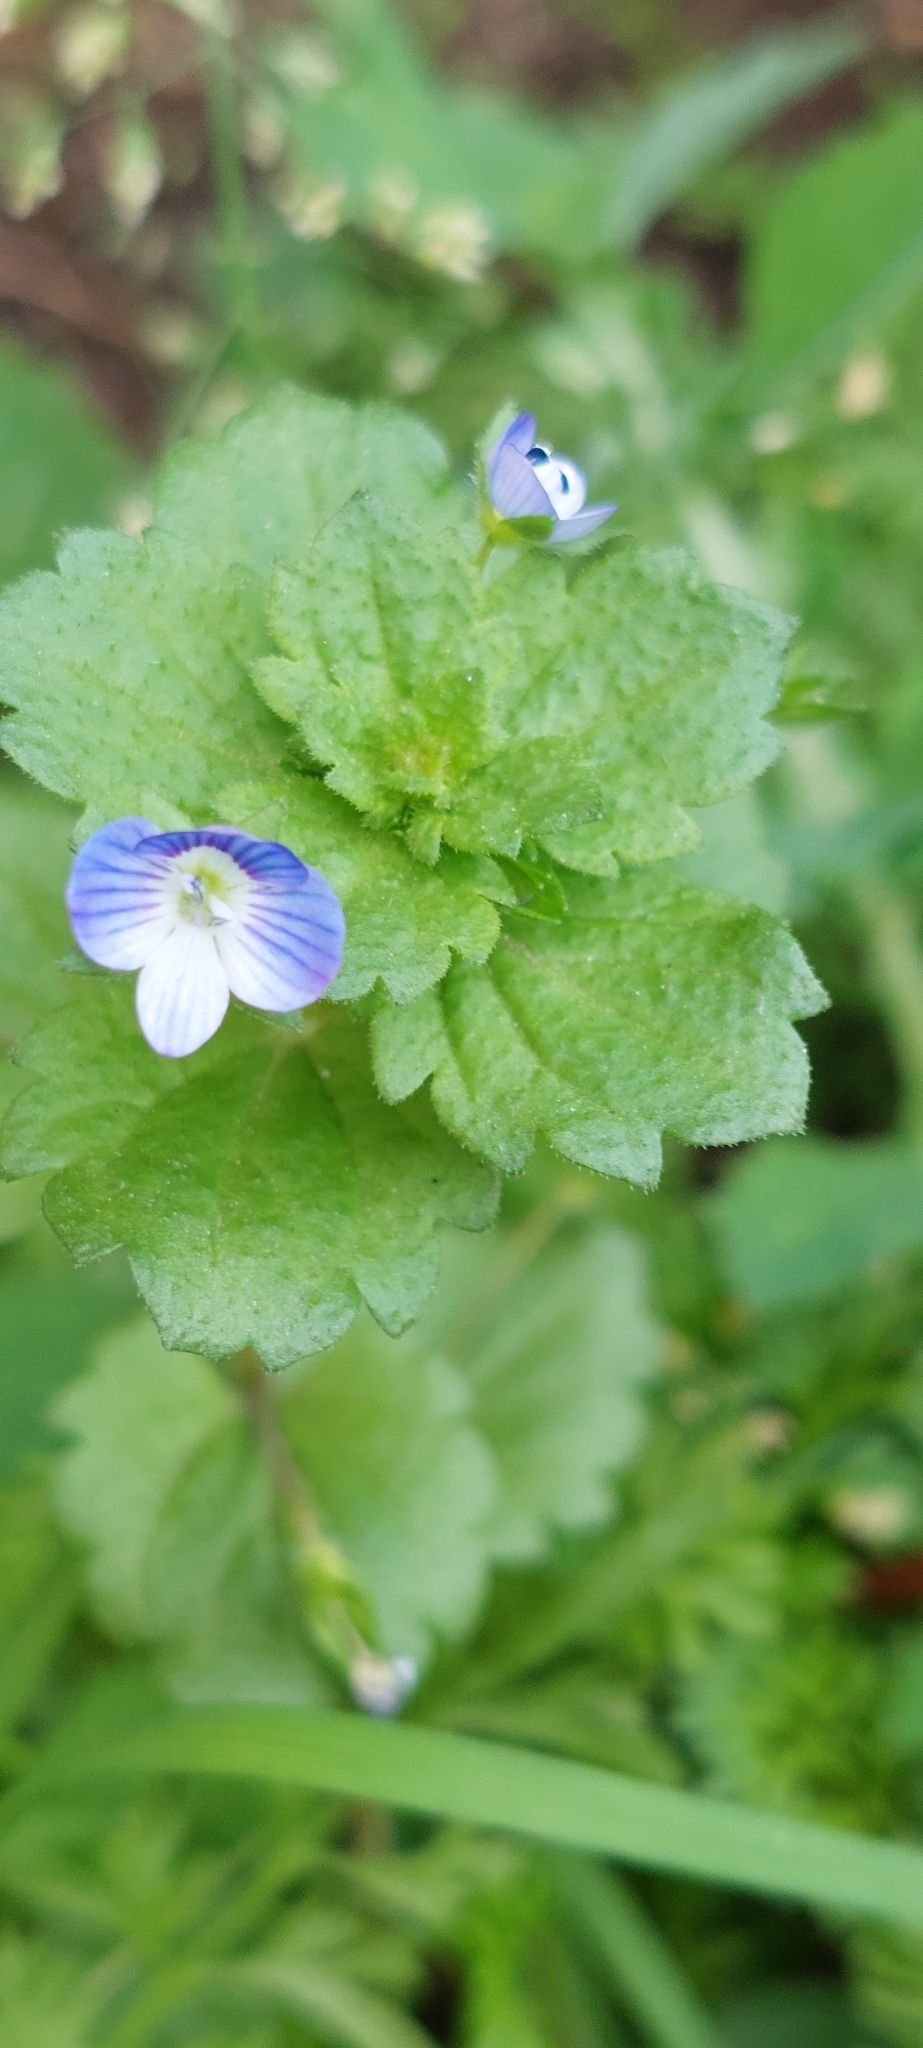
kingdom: Plantae
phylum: Tracheophyta
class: Magnoliopsida
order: Lamiales
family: Plantaginaceae
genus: Veronica
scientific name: Veronica persica
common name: Common field-speedwell
